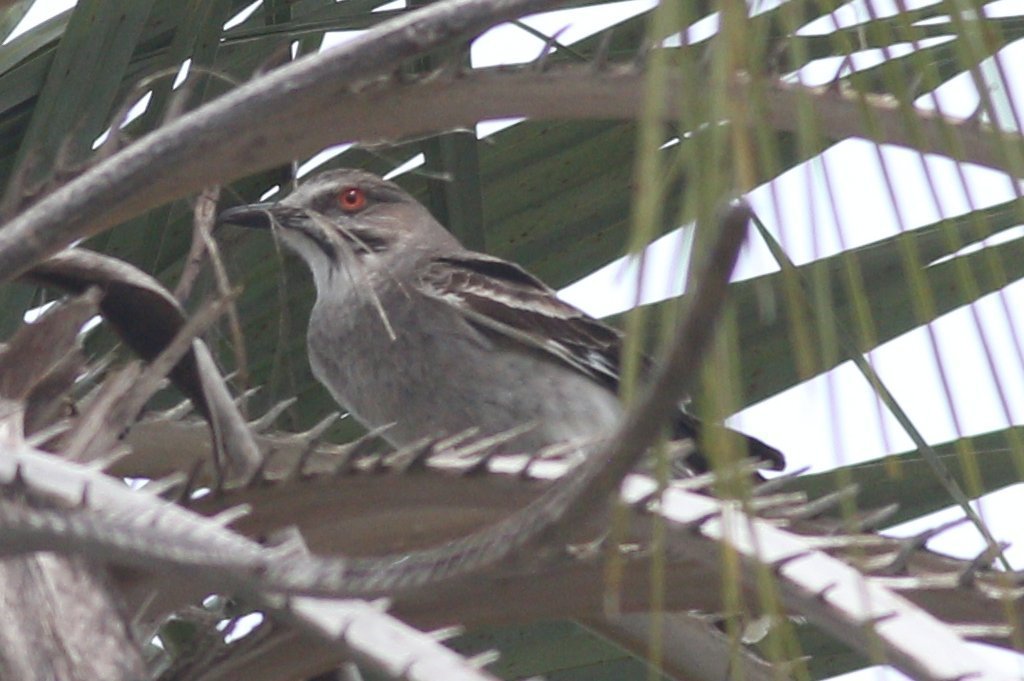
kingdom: Animalia
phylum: Chordata
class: Aves
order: Passeriformes
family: Tyrannidae
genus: Xolmis
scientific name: Xolmis cinereus
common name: Grey monjita
